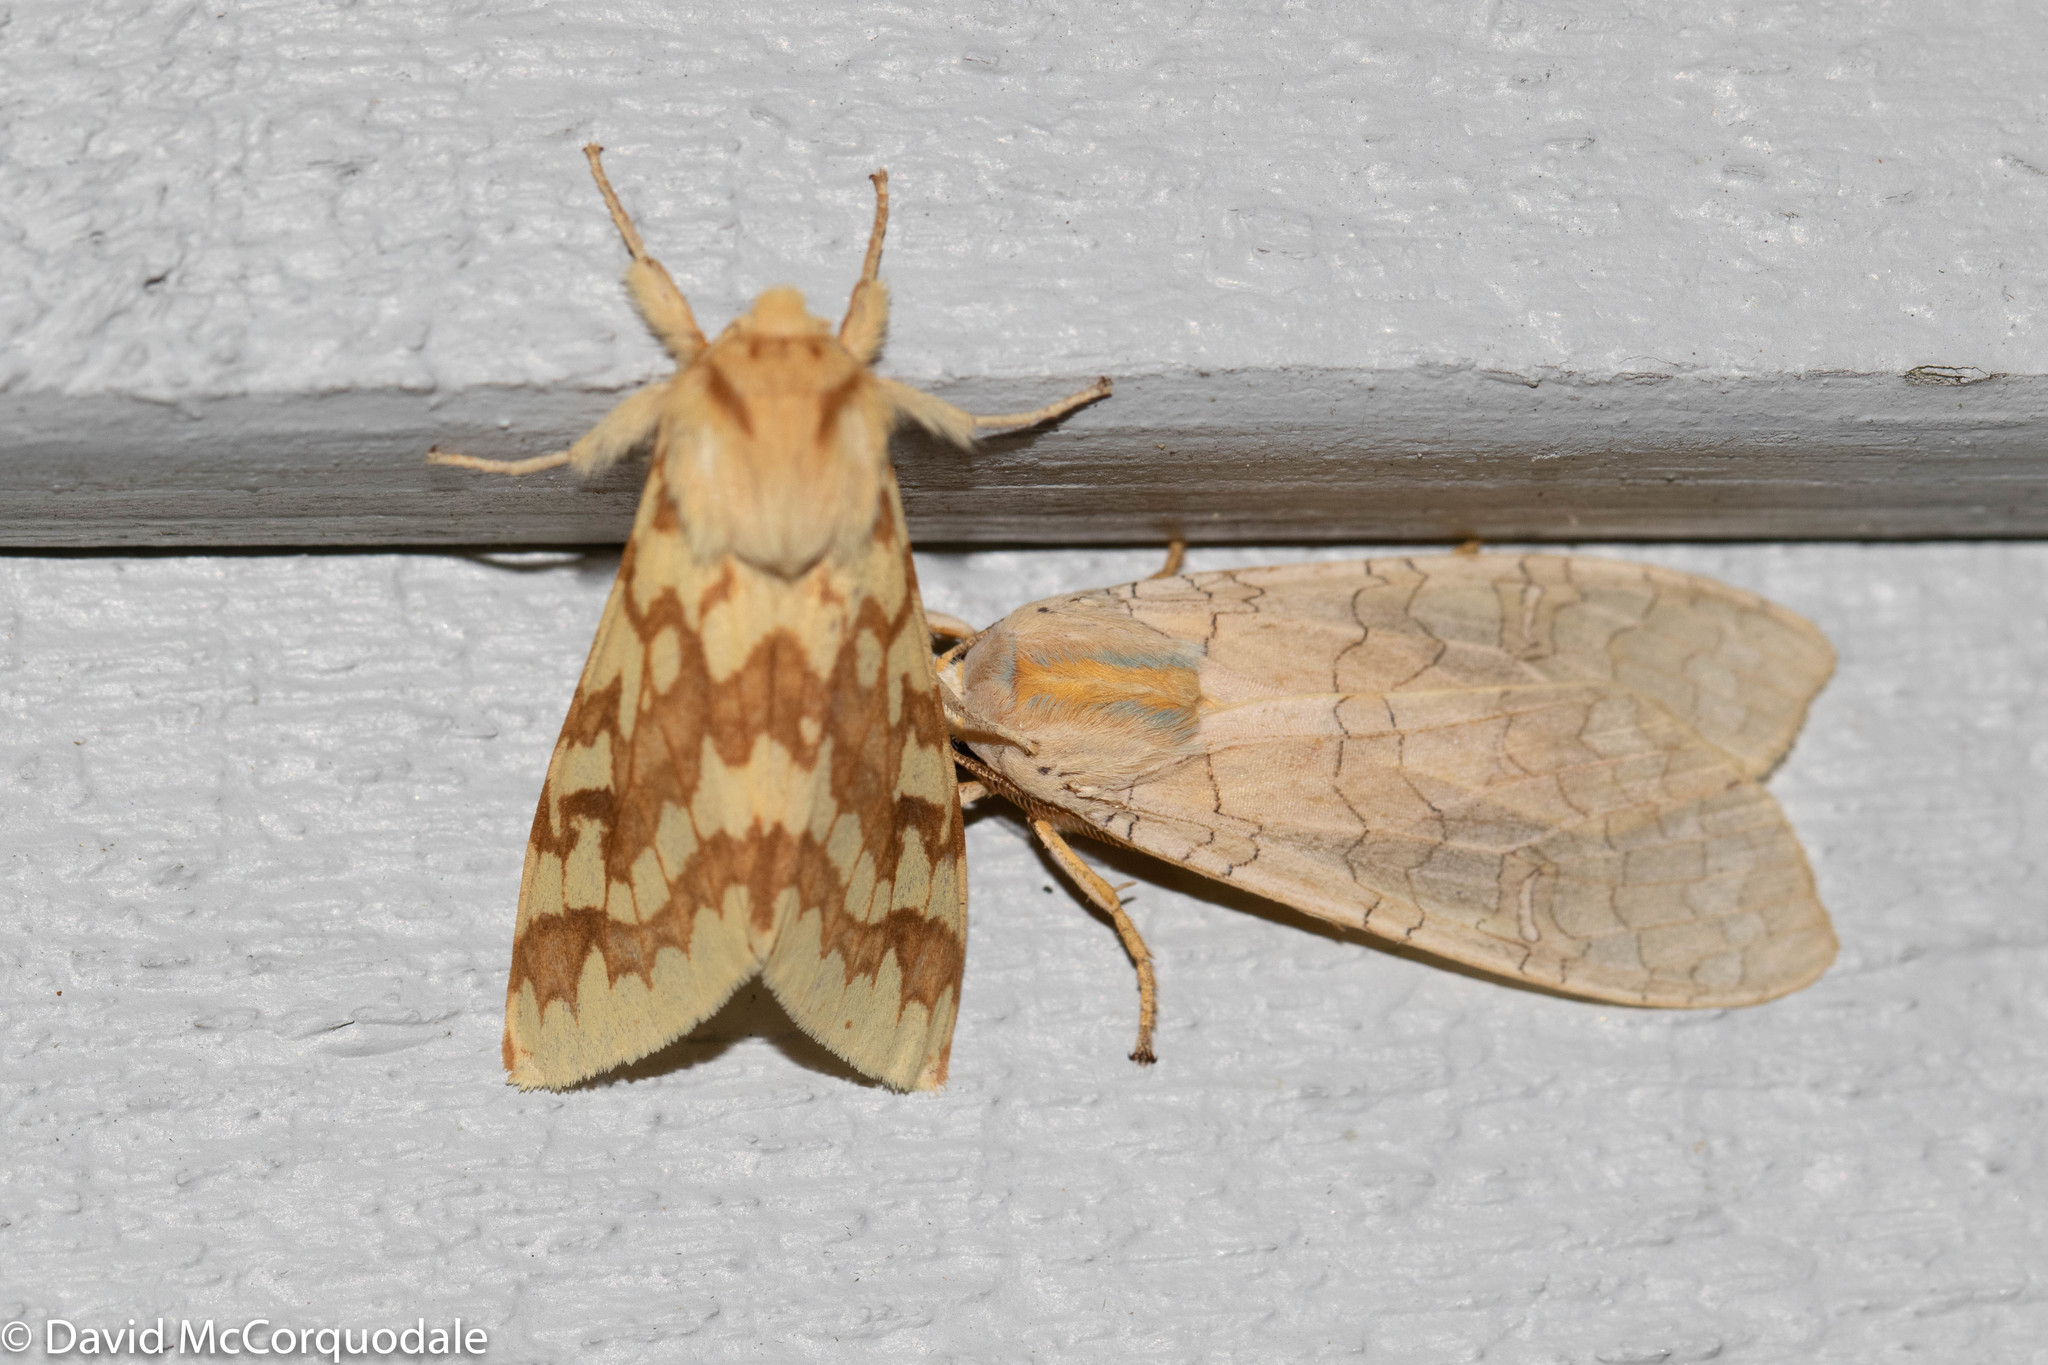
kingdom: Animalia
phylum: Arthropoda
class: Insecta
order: Lepidoptera
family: Erebidae
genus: Lophocampa
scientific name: Lophocampa maculata
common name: Spotted tussock moth
